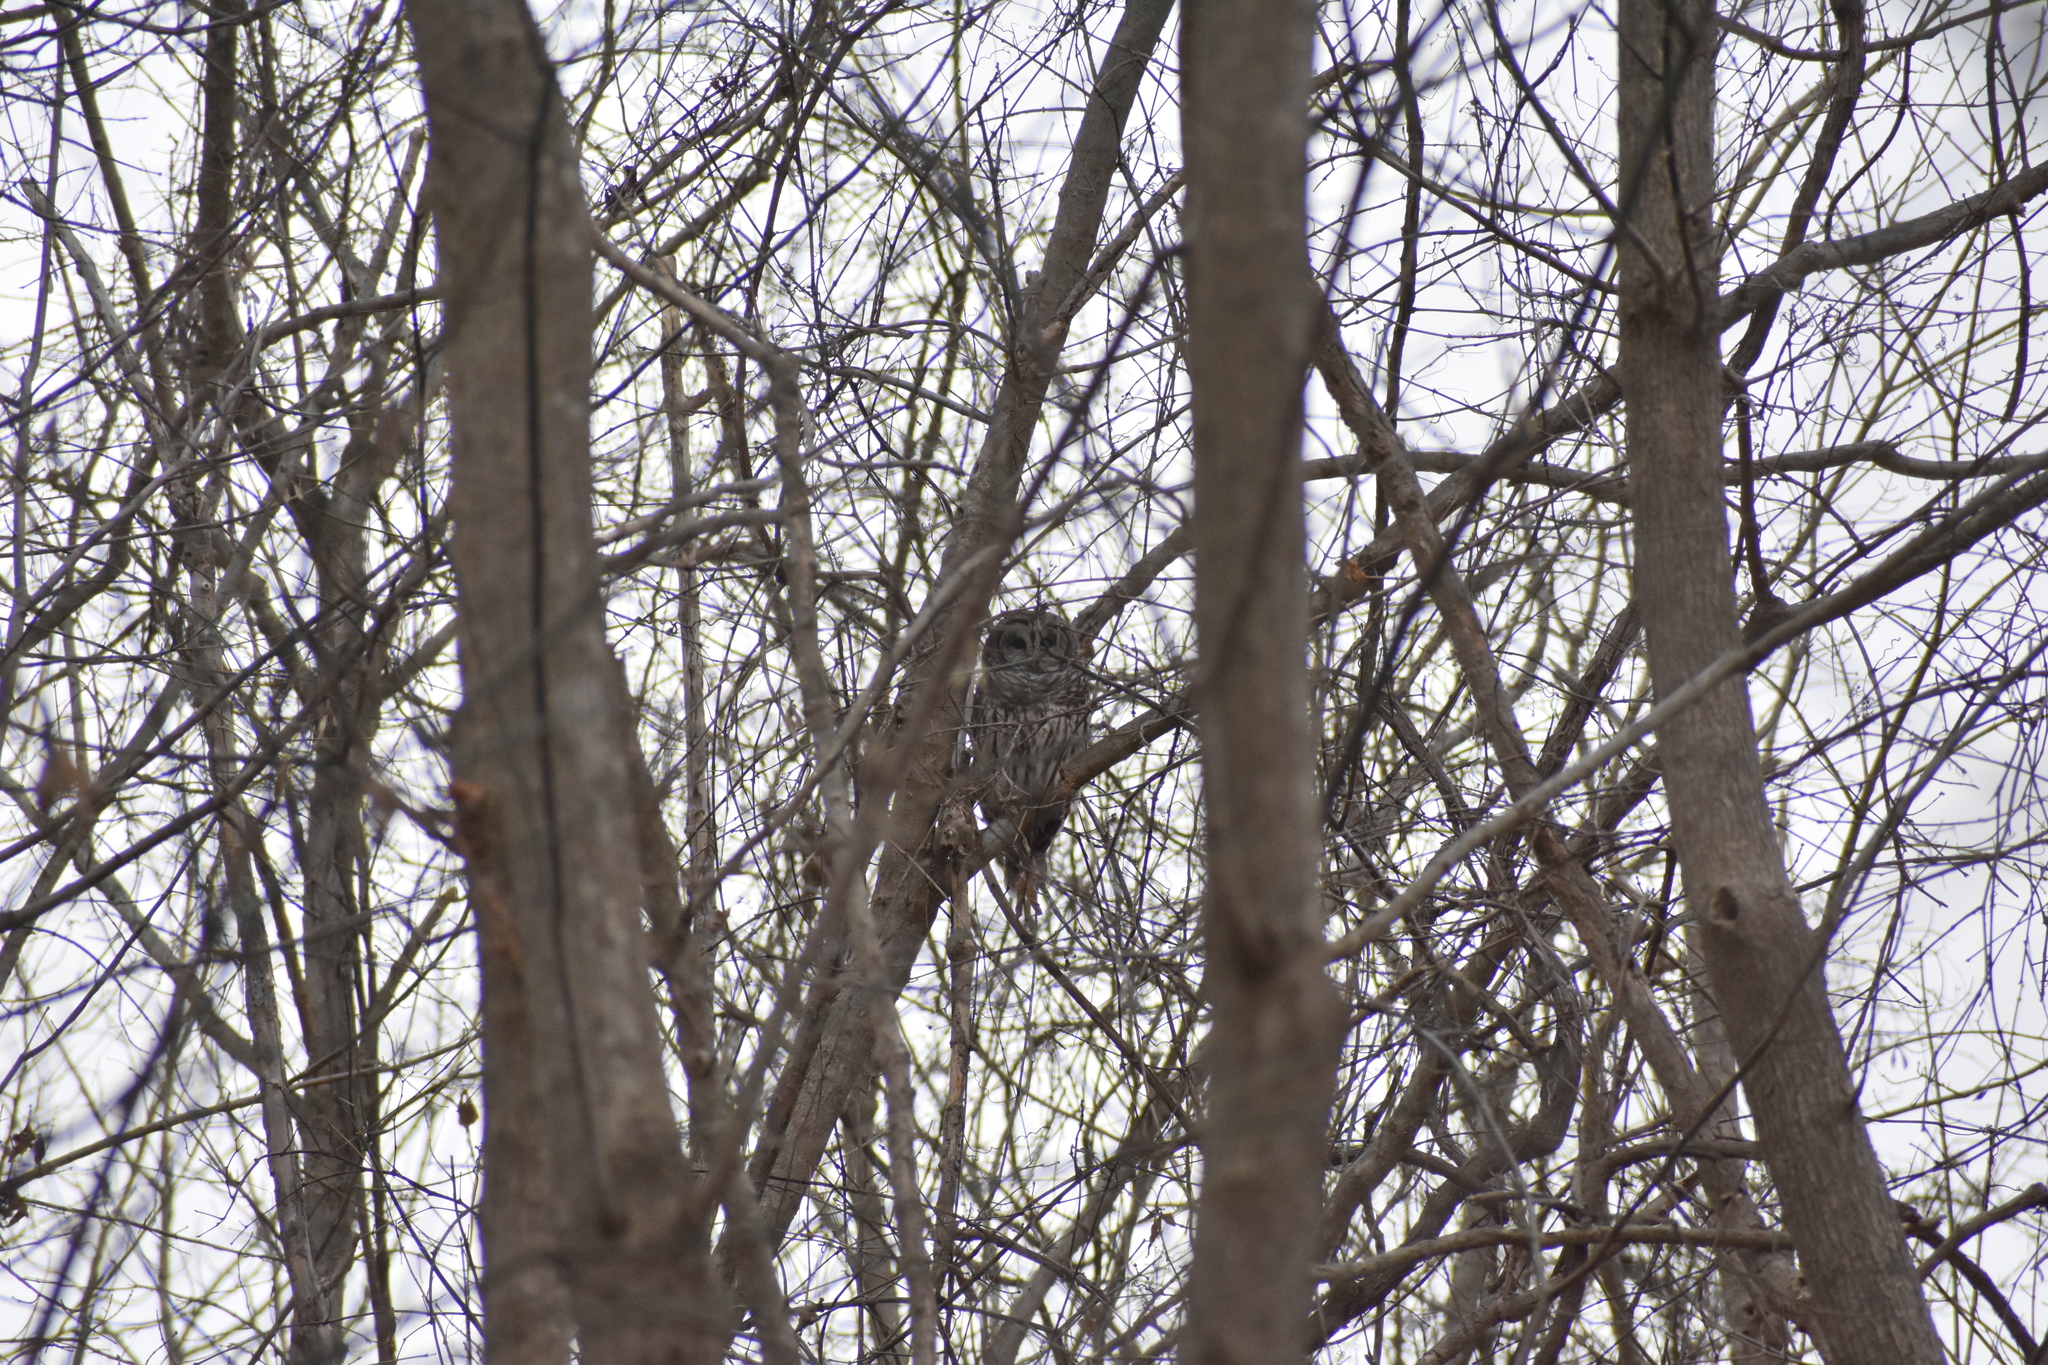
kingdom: Animalia
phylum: Chordata
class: Aves
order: Strigiformes
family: Strigidae
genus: Strix
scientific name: Strix varia
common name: Barred owl
